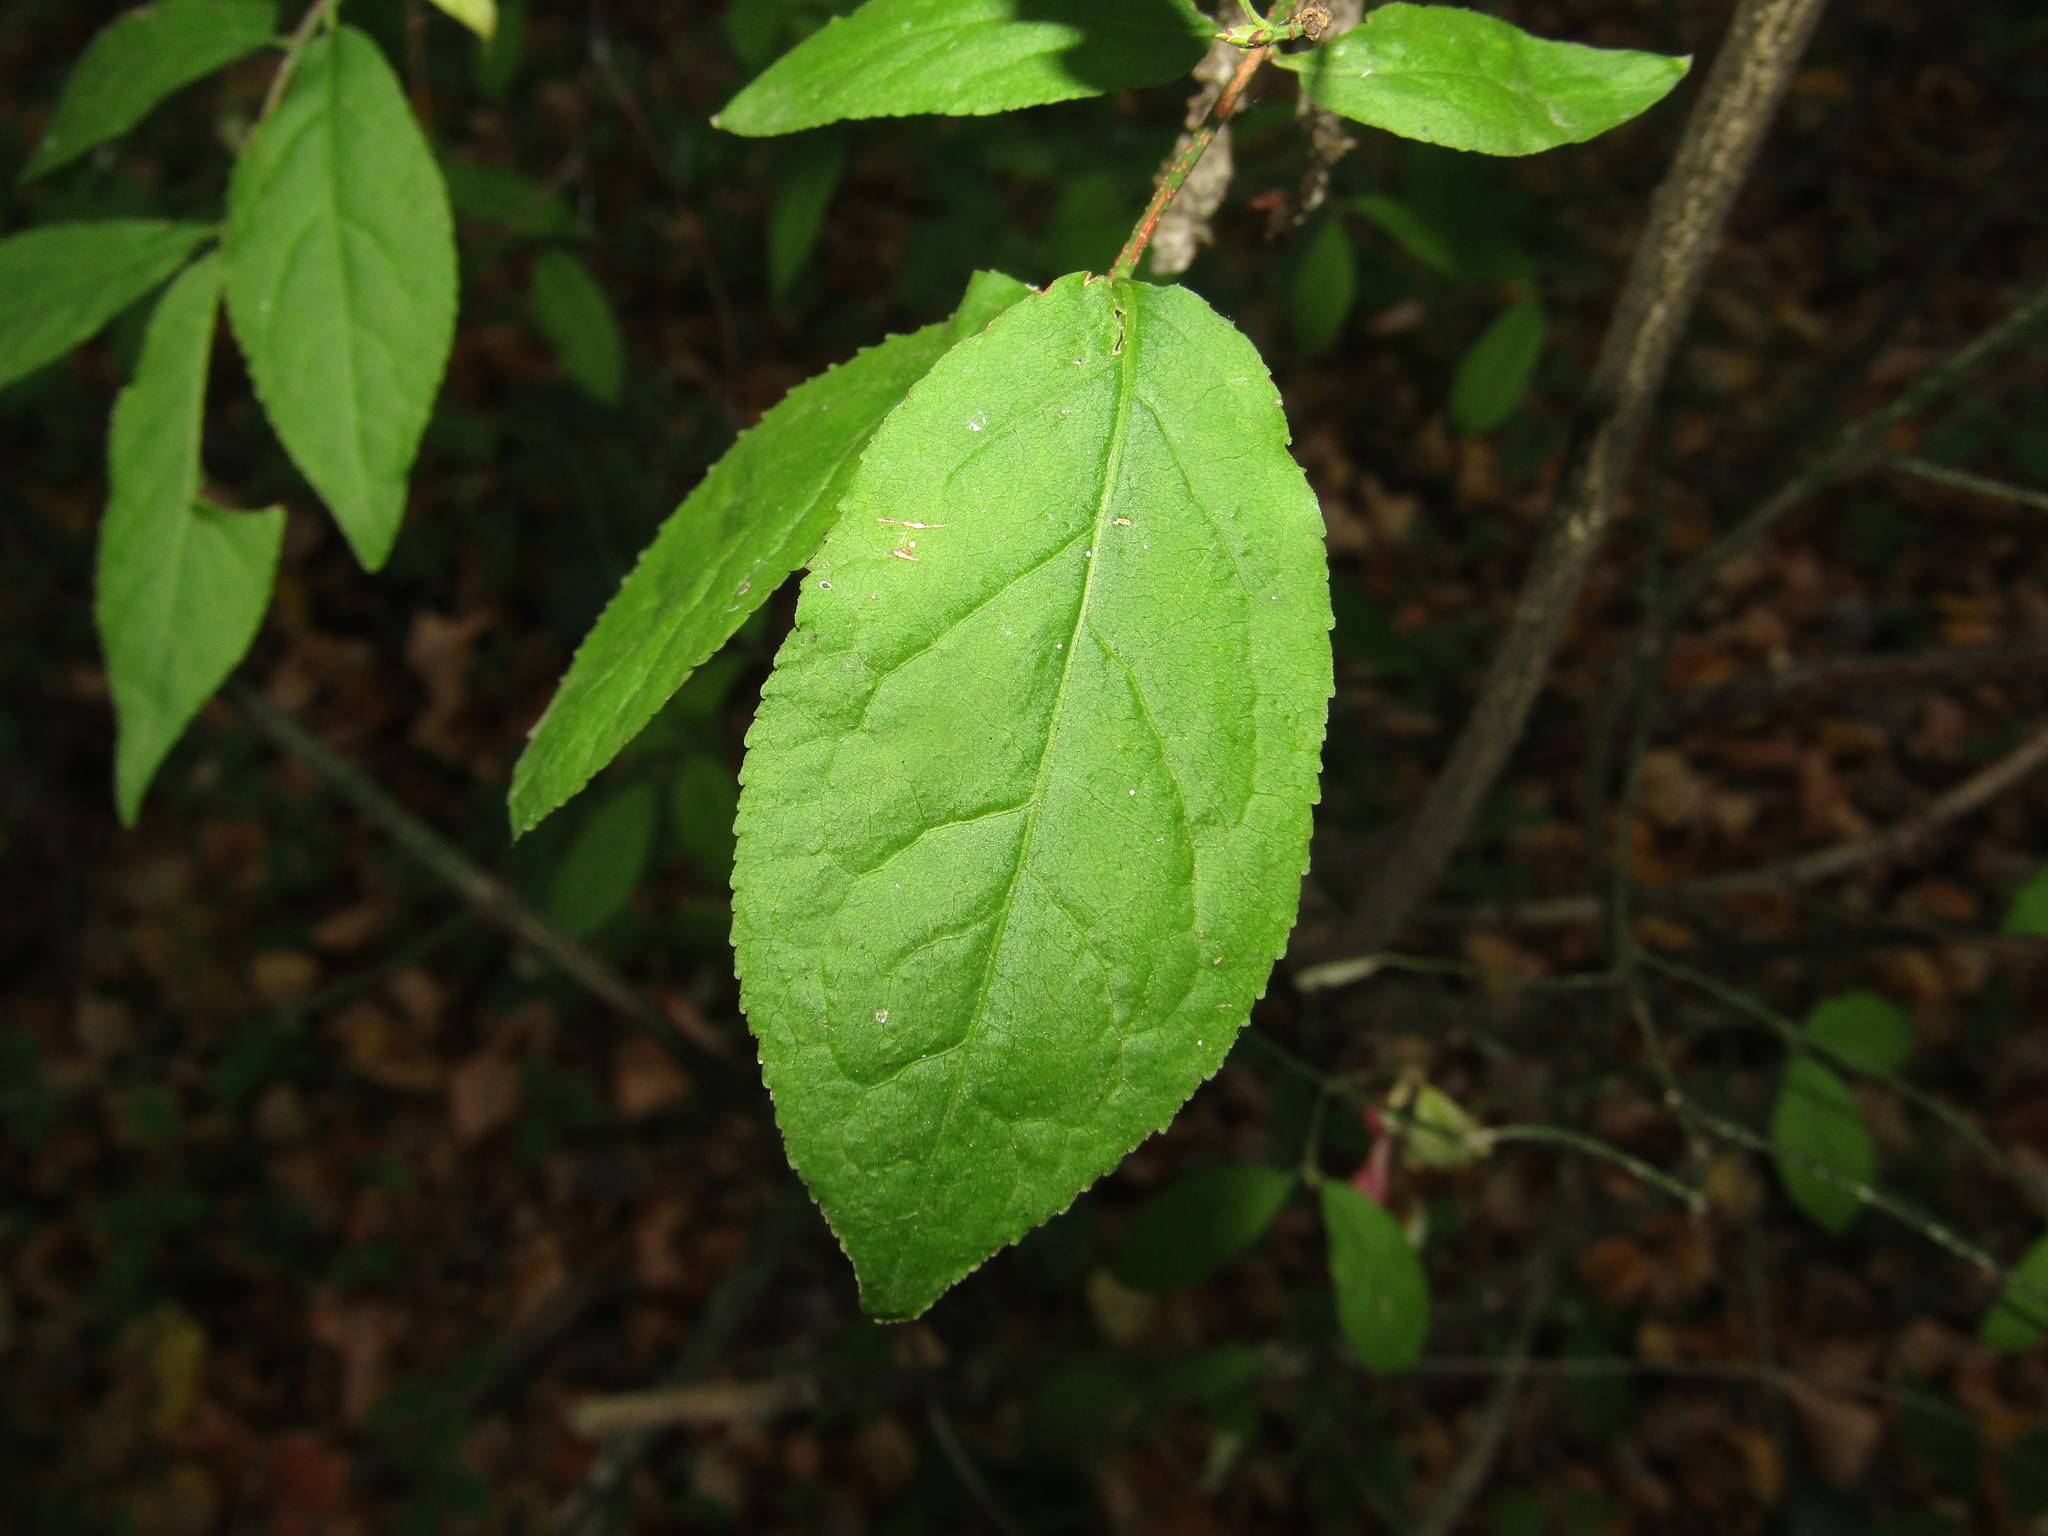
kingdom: Plantae
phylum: Tracheophyta
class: Magnoliopsida
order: Celastrales
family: Celastraceae
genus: Euonymus
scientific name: Euonymus verrucosus
